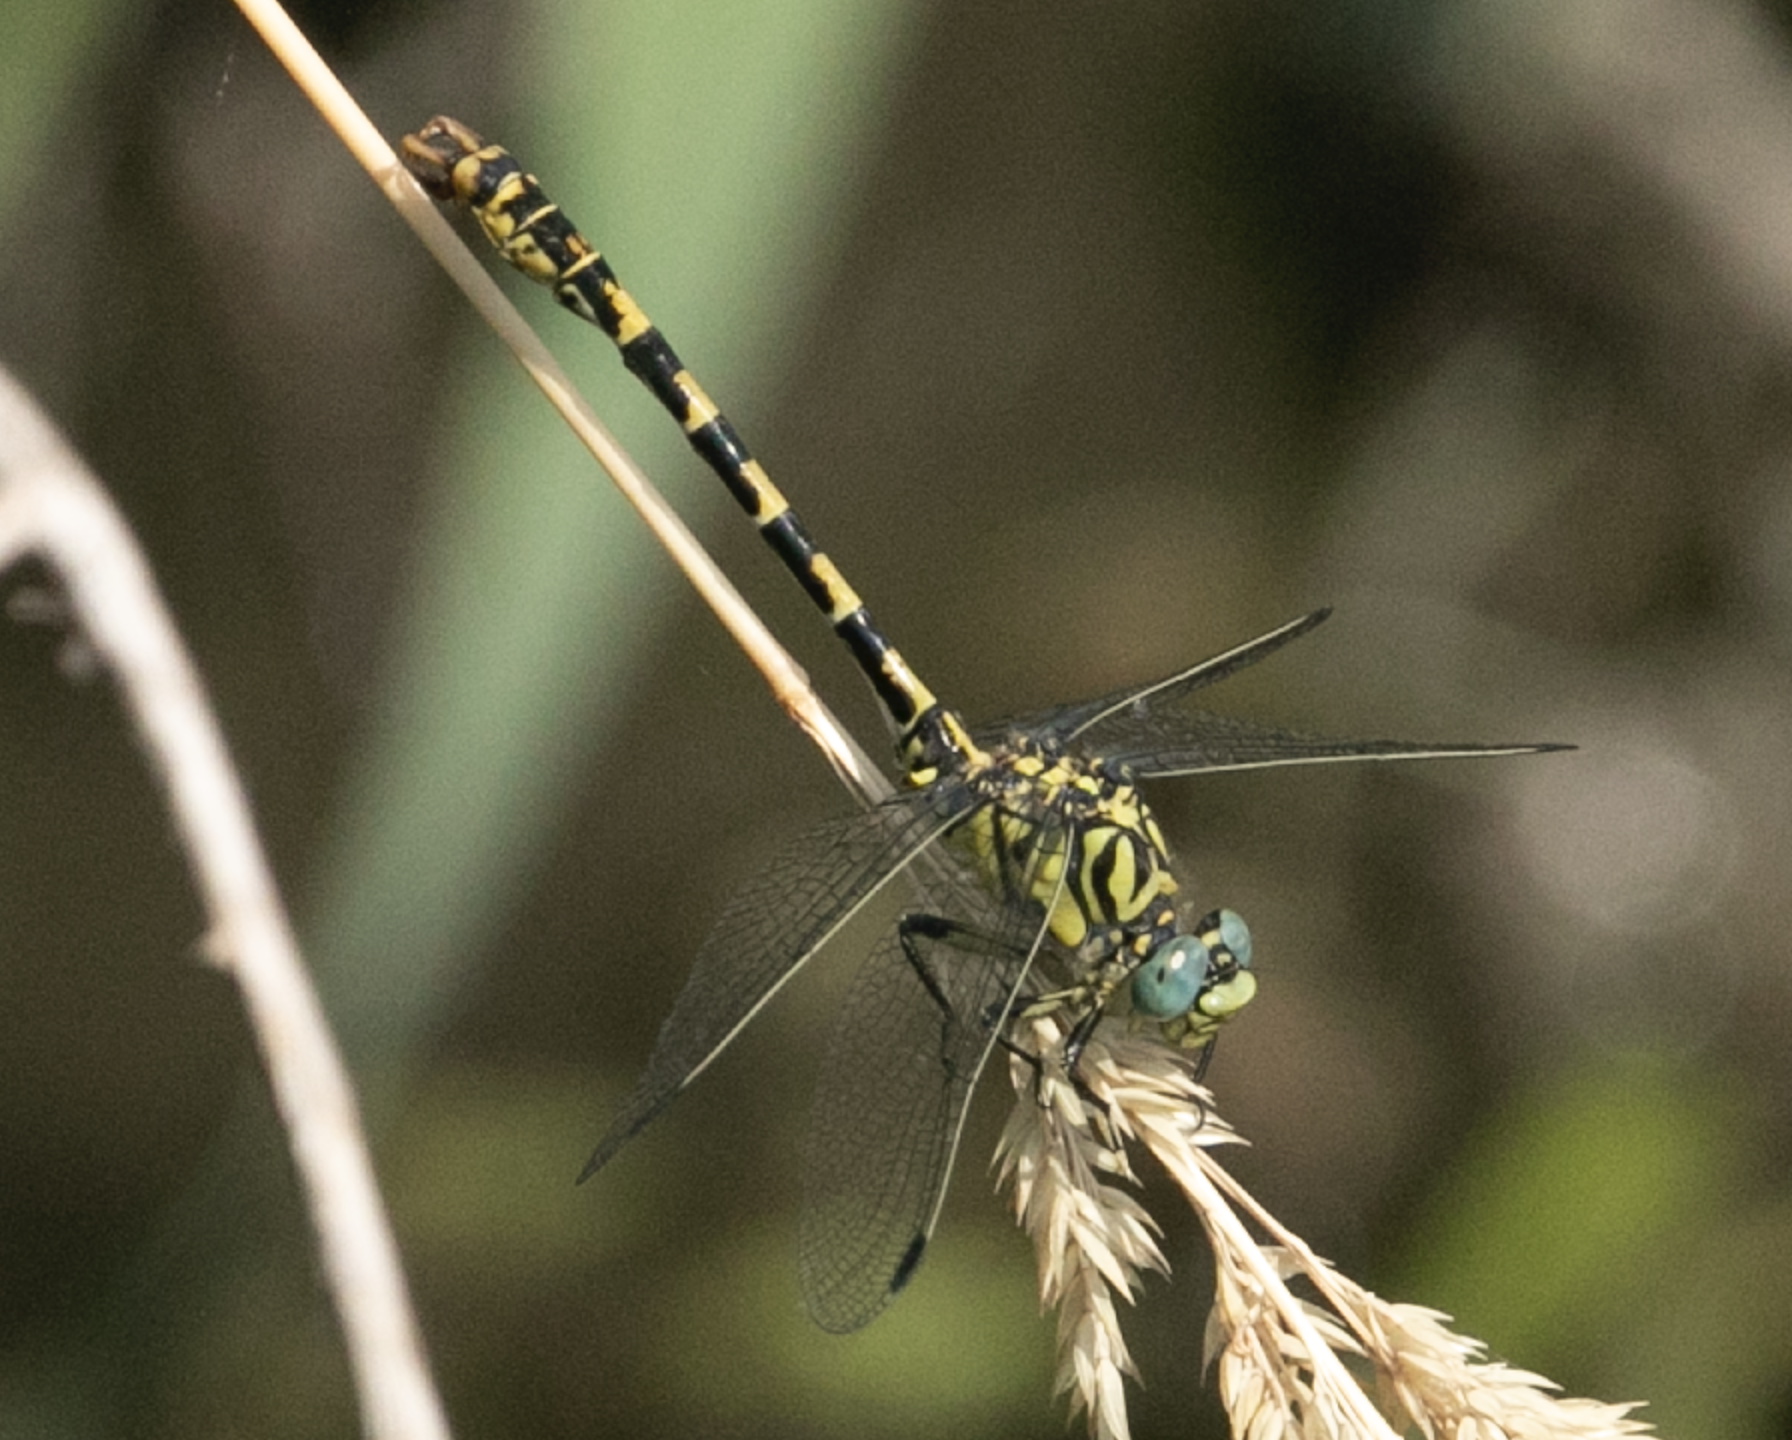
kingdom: Animalia
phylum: Arthropoda
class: Insecta
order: Odonata
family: Gomphidae
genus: Onychogomphus
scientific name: Onychogomphus forcipatus
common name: Small pincertail
